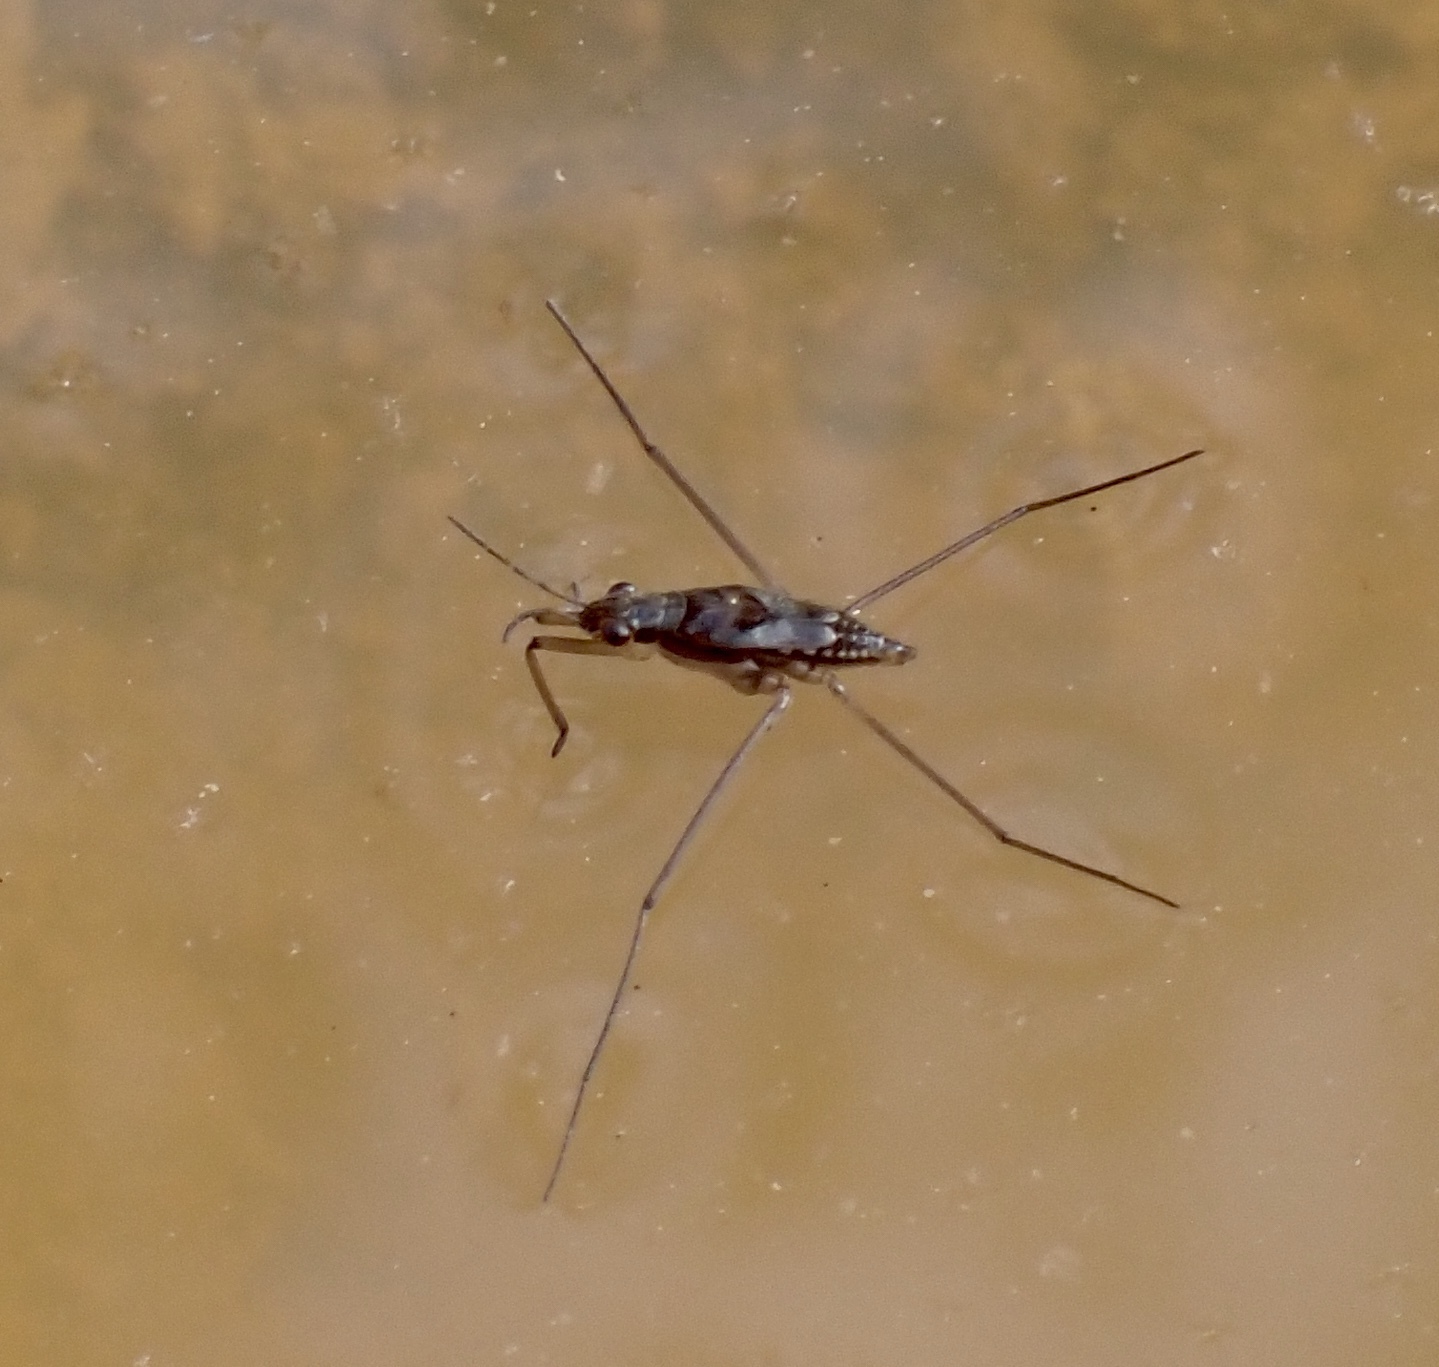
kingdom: Animalia
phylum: Arthropoda
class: Insecta
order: Hemiptera
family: Gerridae
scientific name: Gerridae
